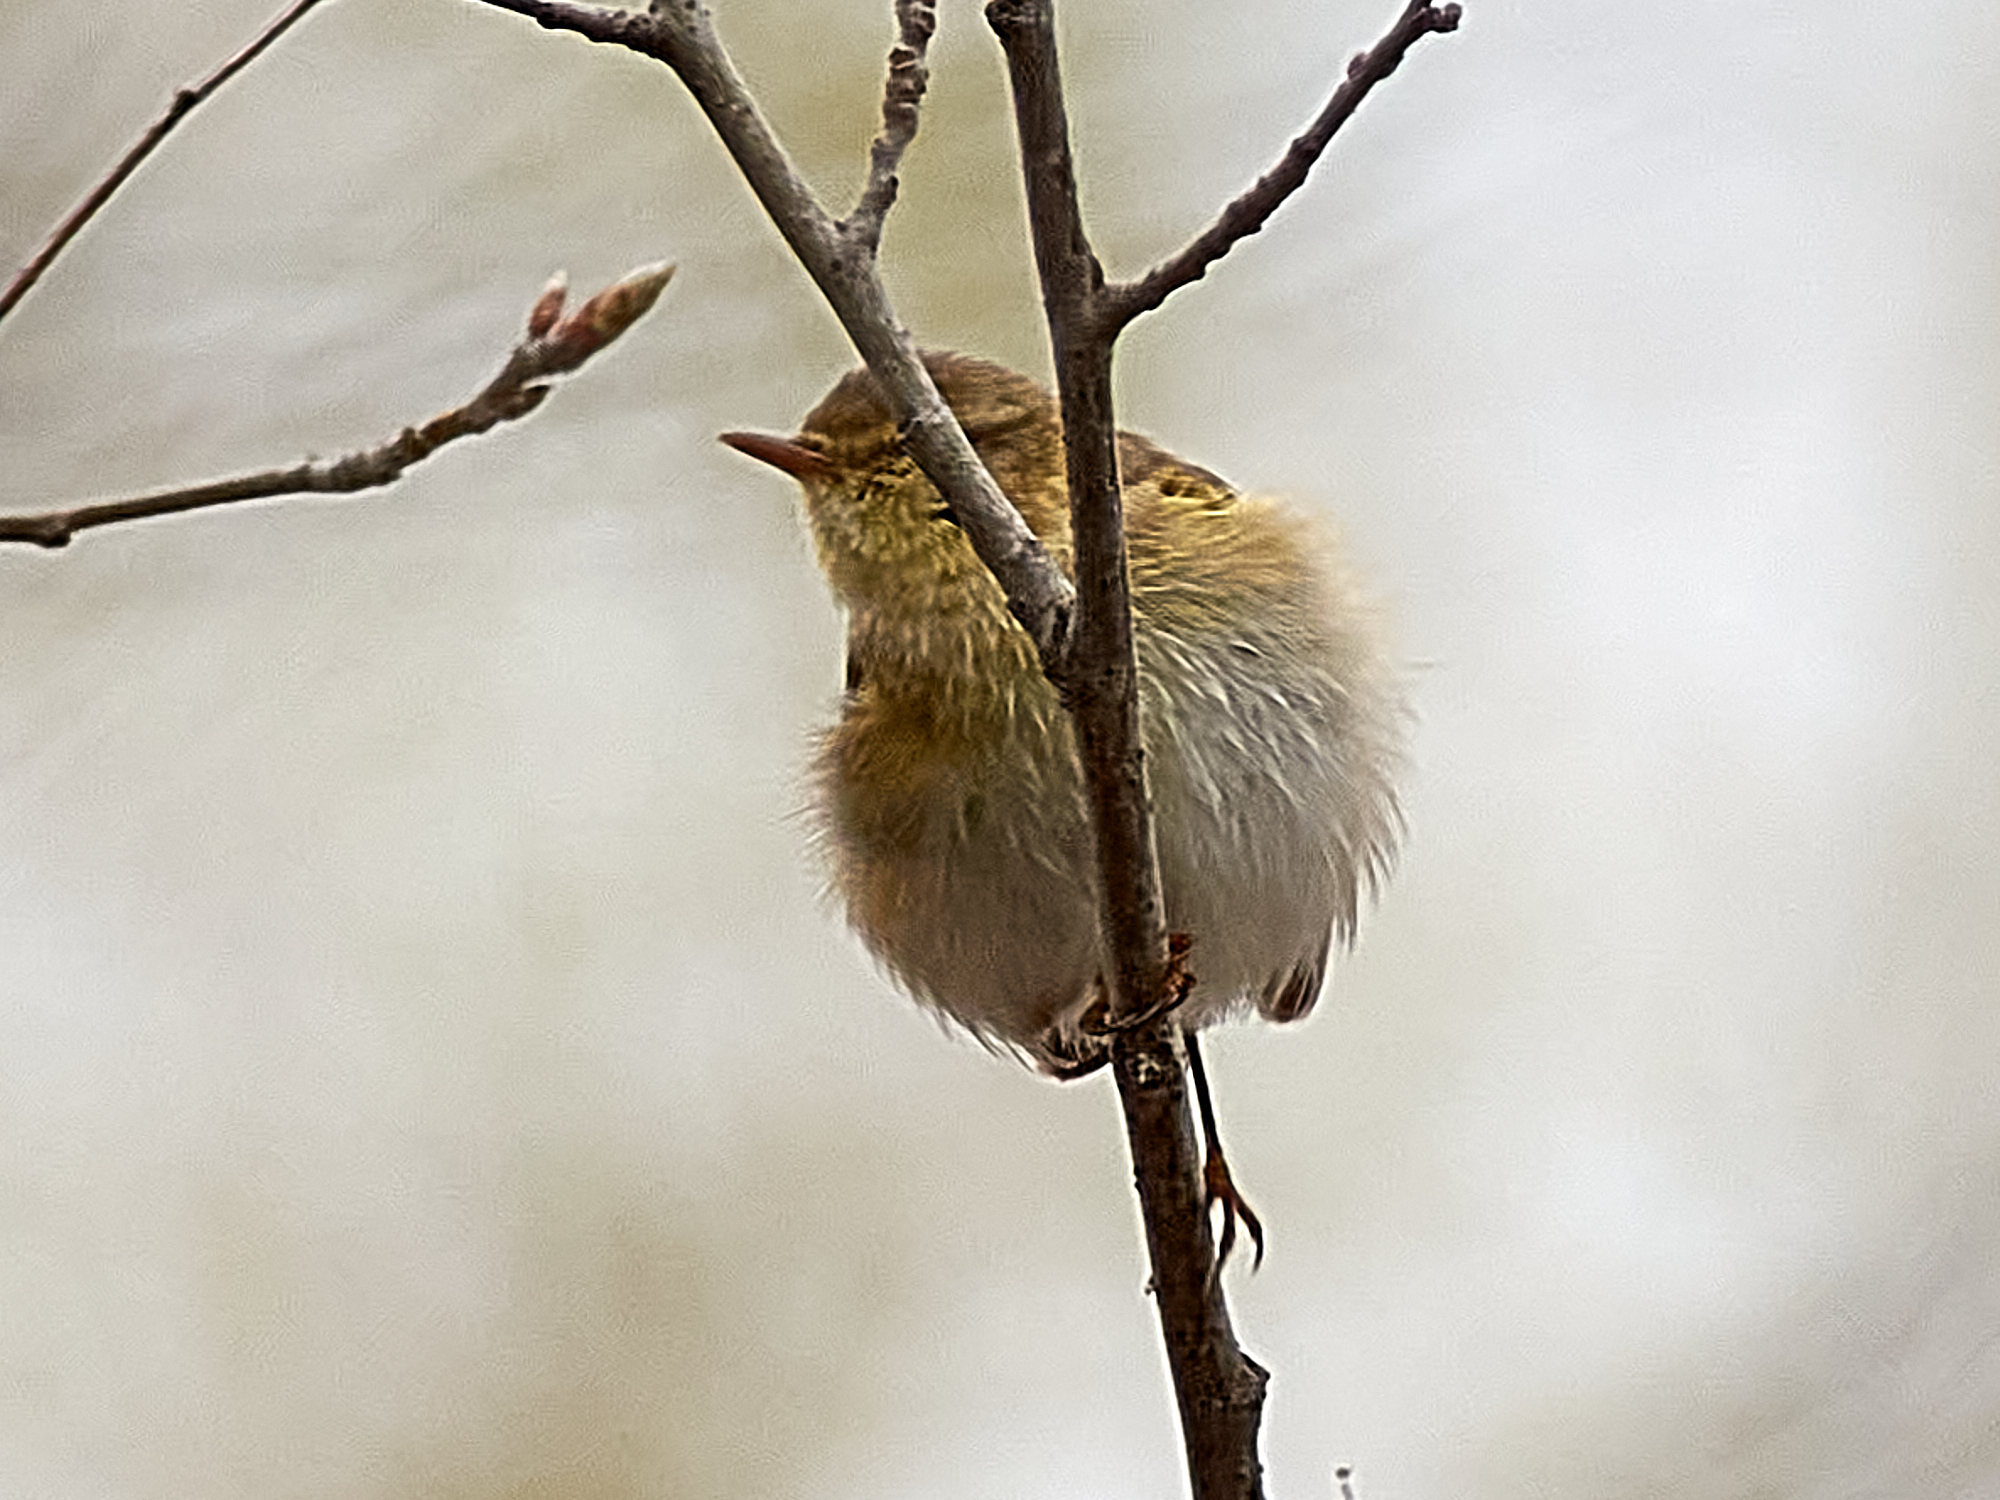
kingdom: Animalia
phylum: Chordata
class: Aves
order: Passeriformes
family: Phylloscopidae
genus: Phylloscopus
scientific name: Phylloscopus trochilus
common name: Willow warbler
